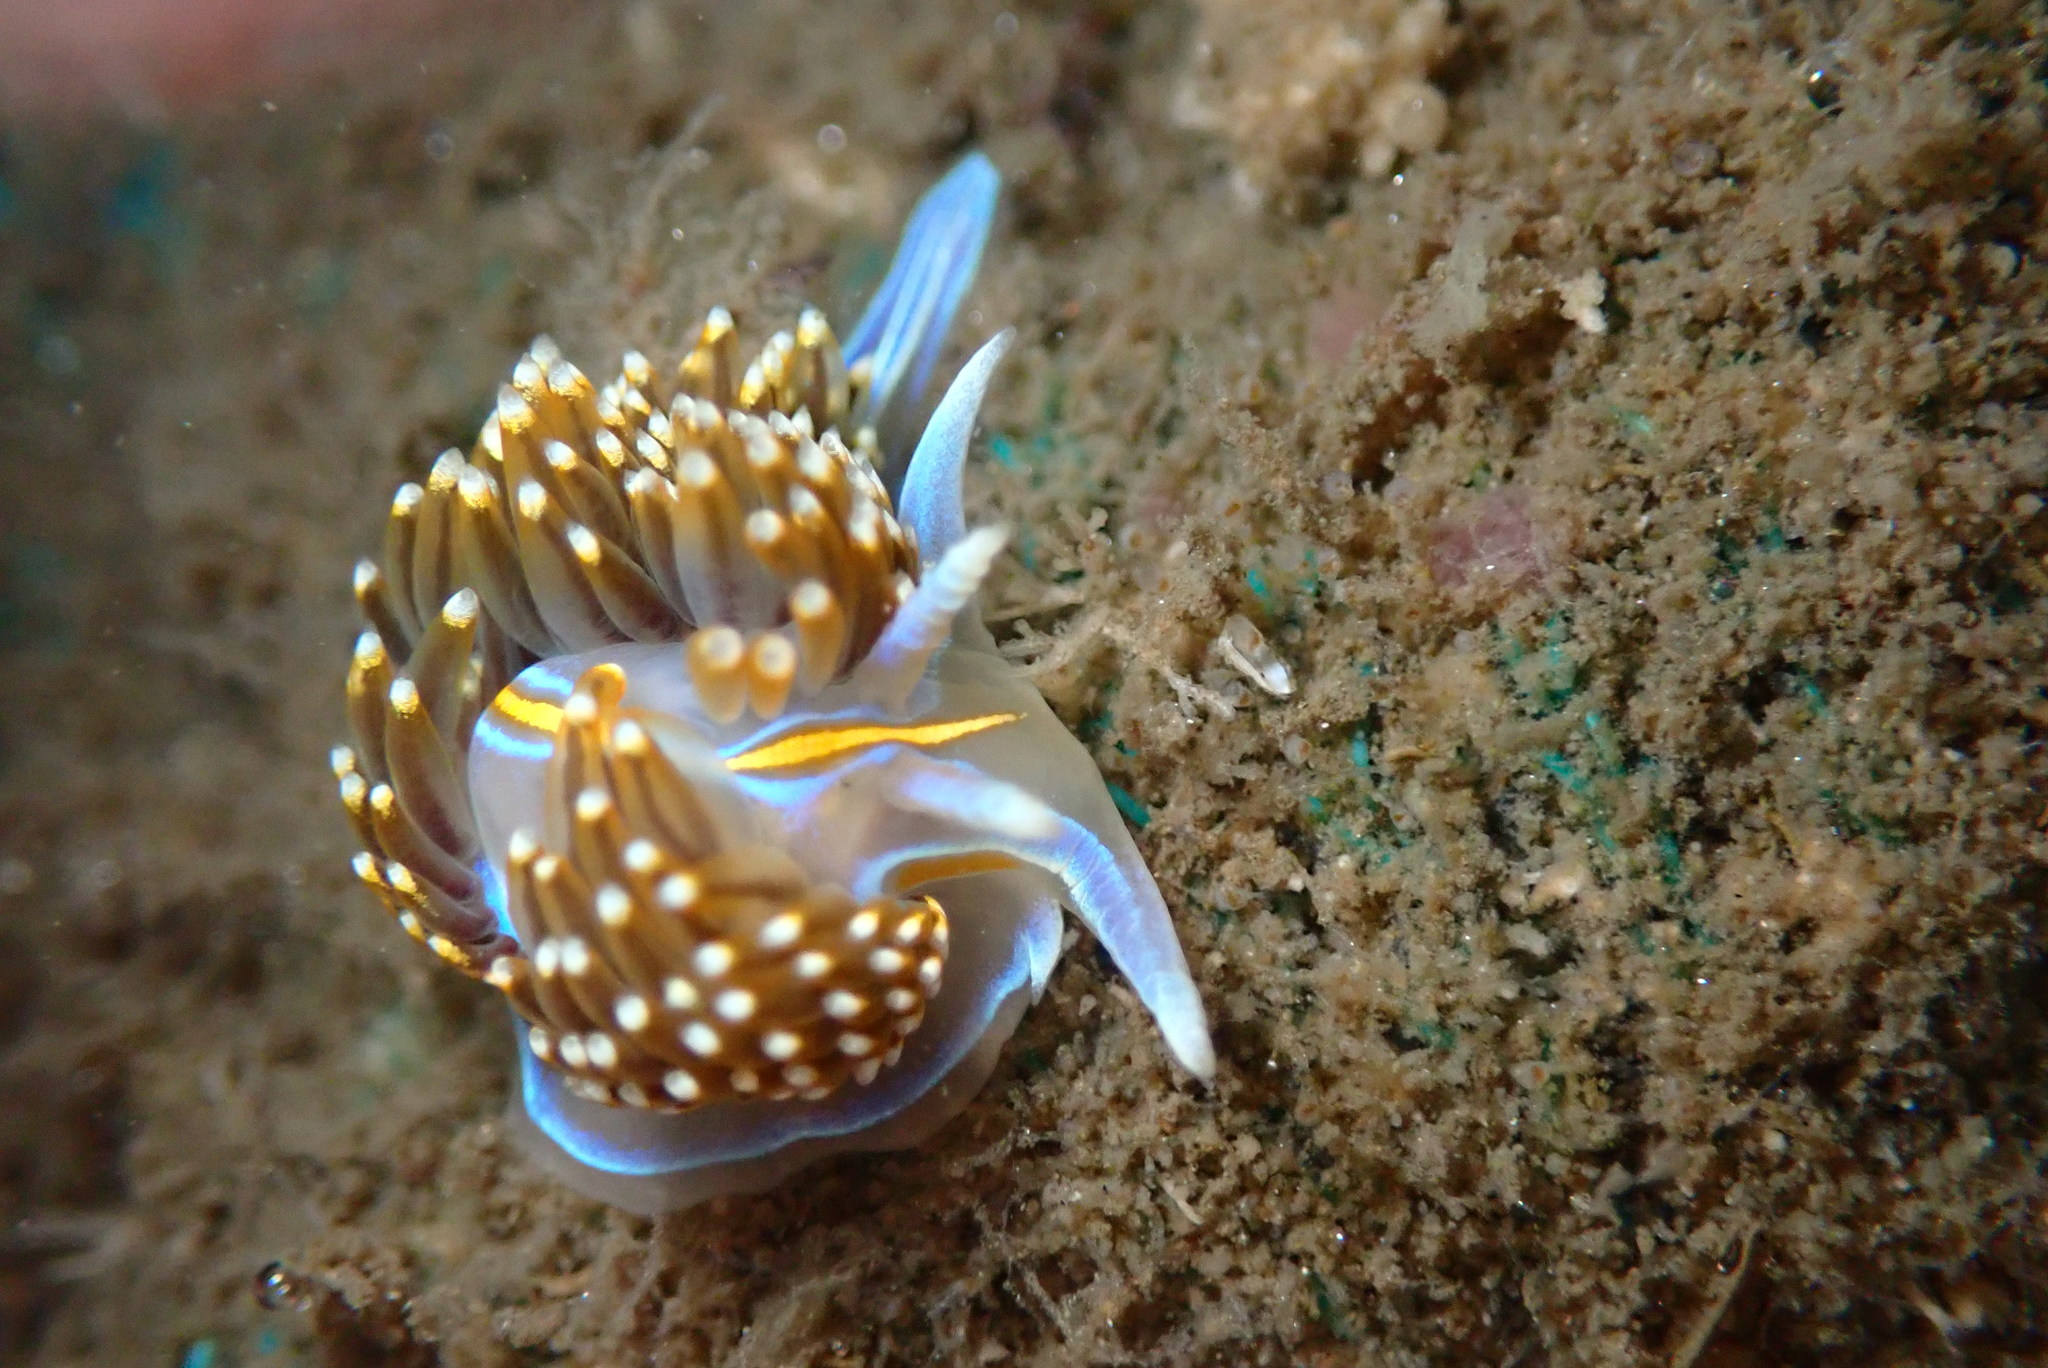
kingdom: Animalia
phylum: Mollusca
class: Gastropoda
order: Nudibranchia
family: Myrrhinidae
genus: Hermissenda
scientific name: Hermissenda opalescens
